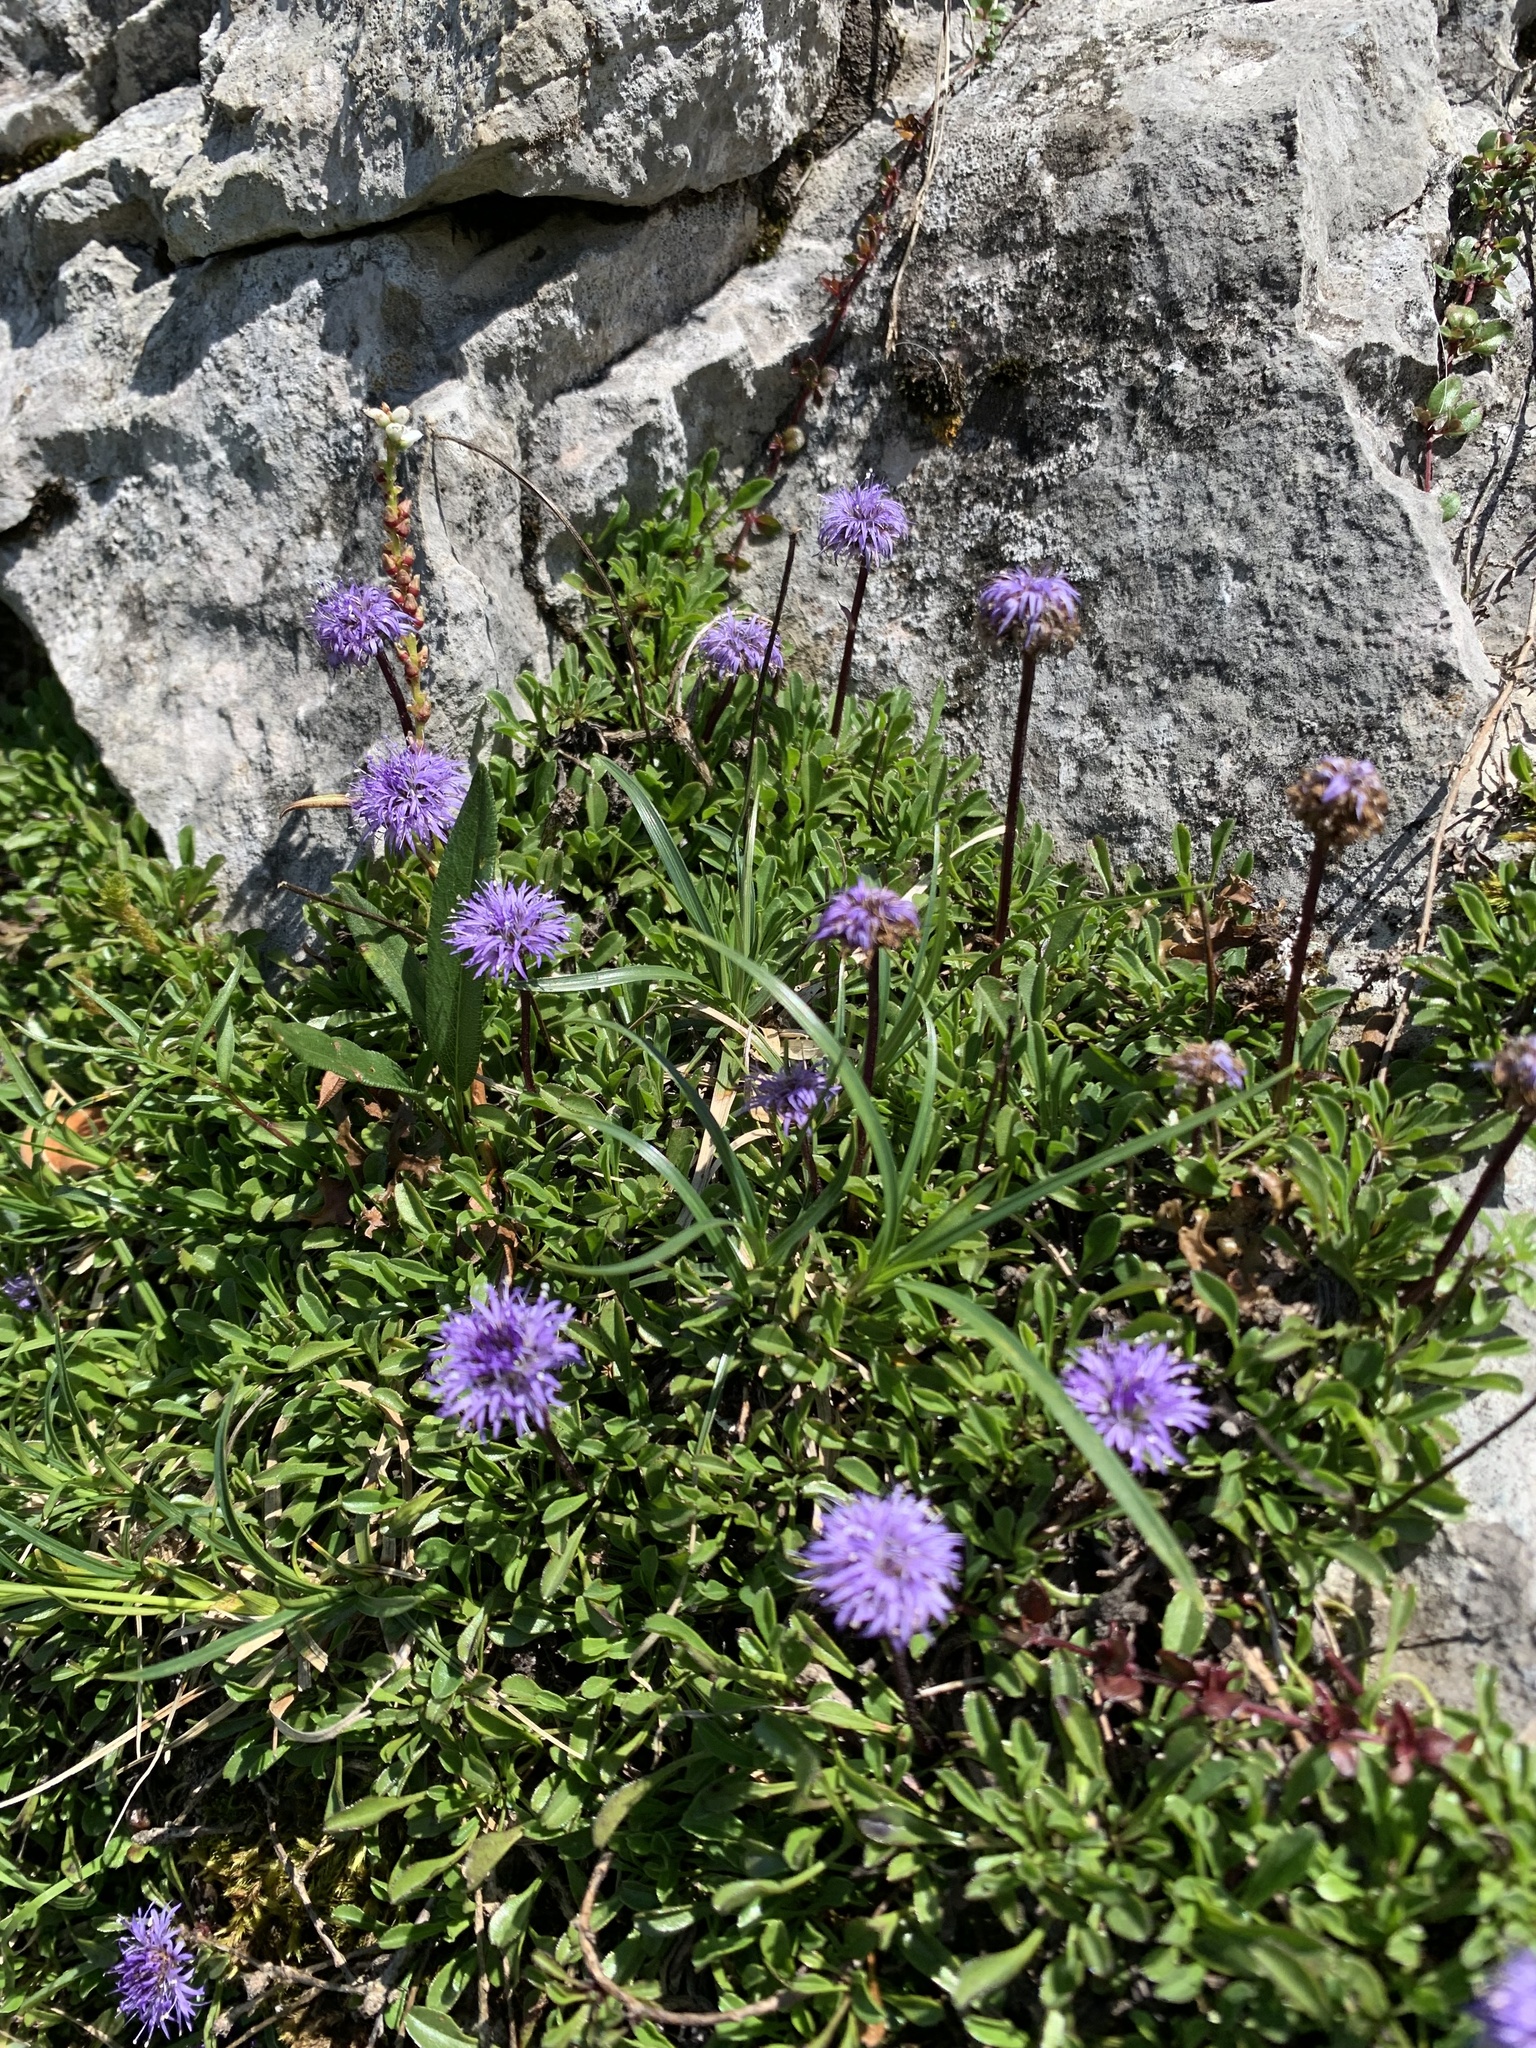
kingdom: Plantae
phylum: Tracheophyta
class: Magnoliopsida
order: Lamiales
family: Plantaginaceae
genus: Globularia
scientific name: Globularia cordifolia
